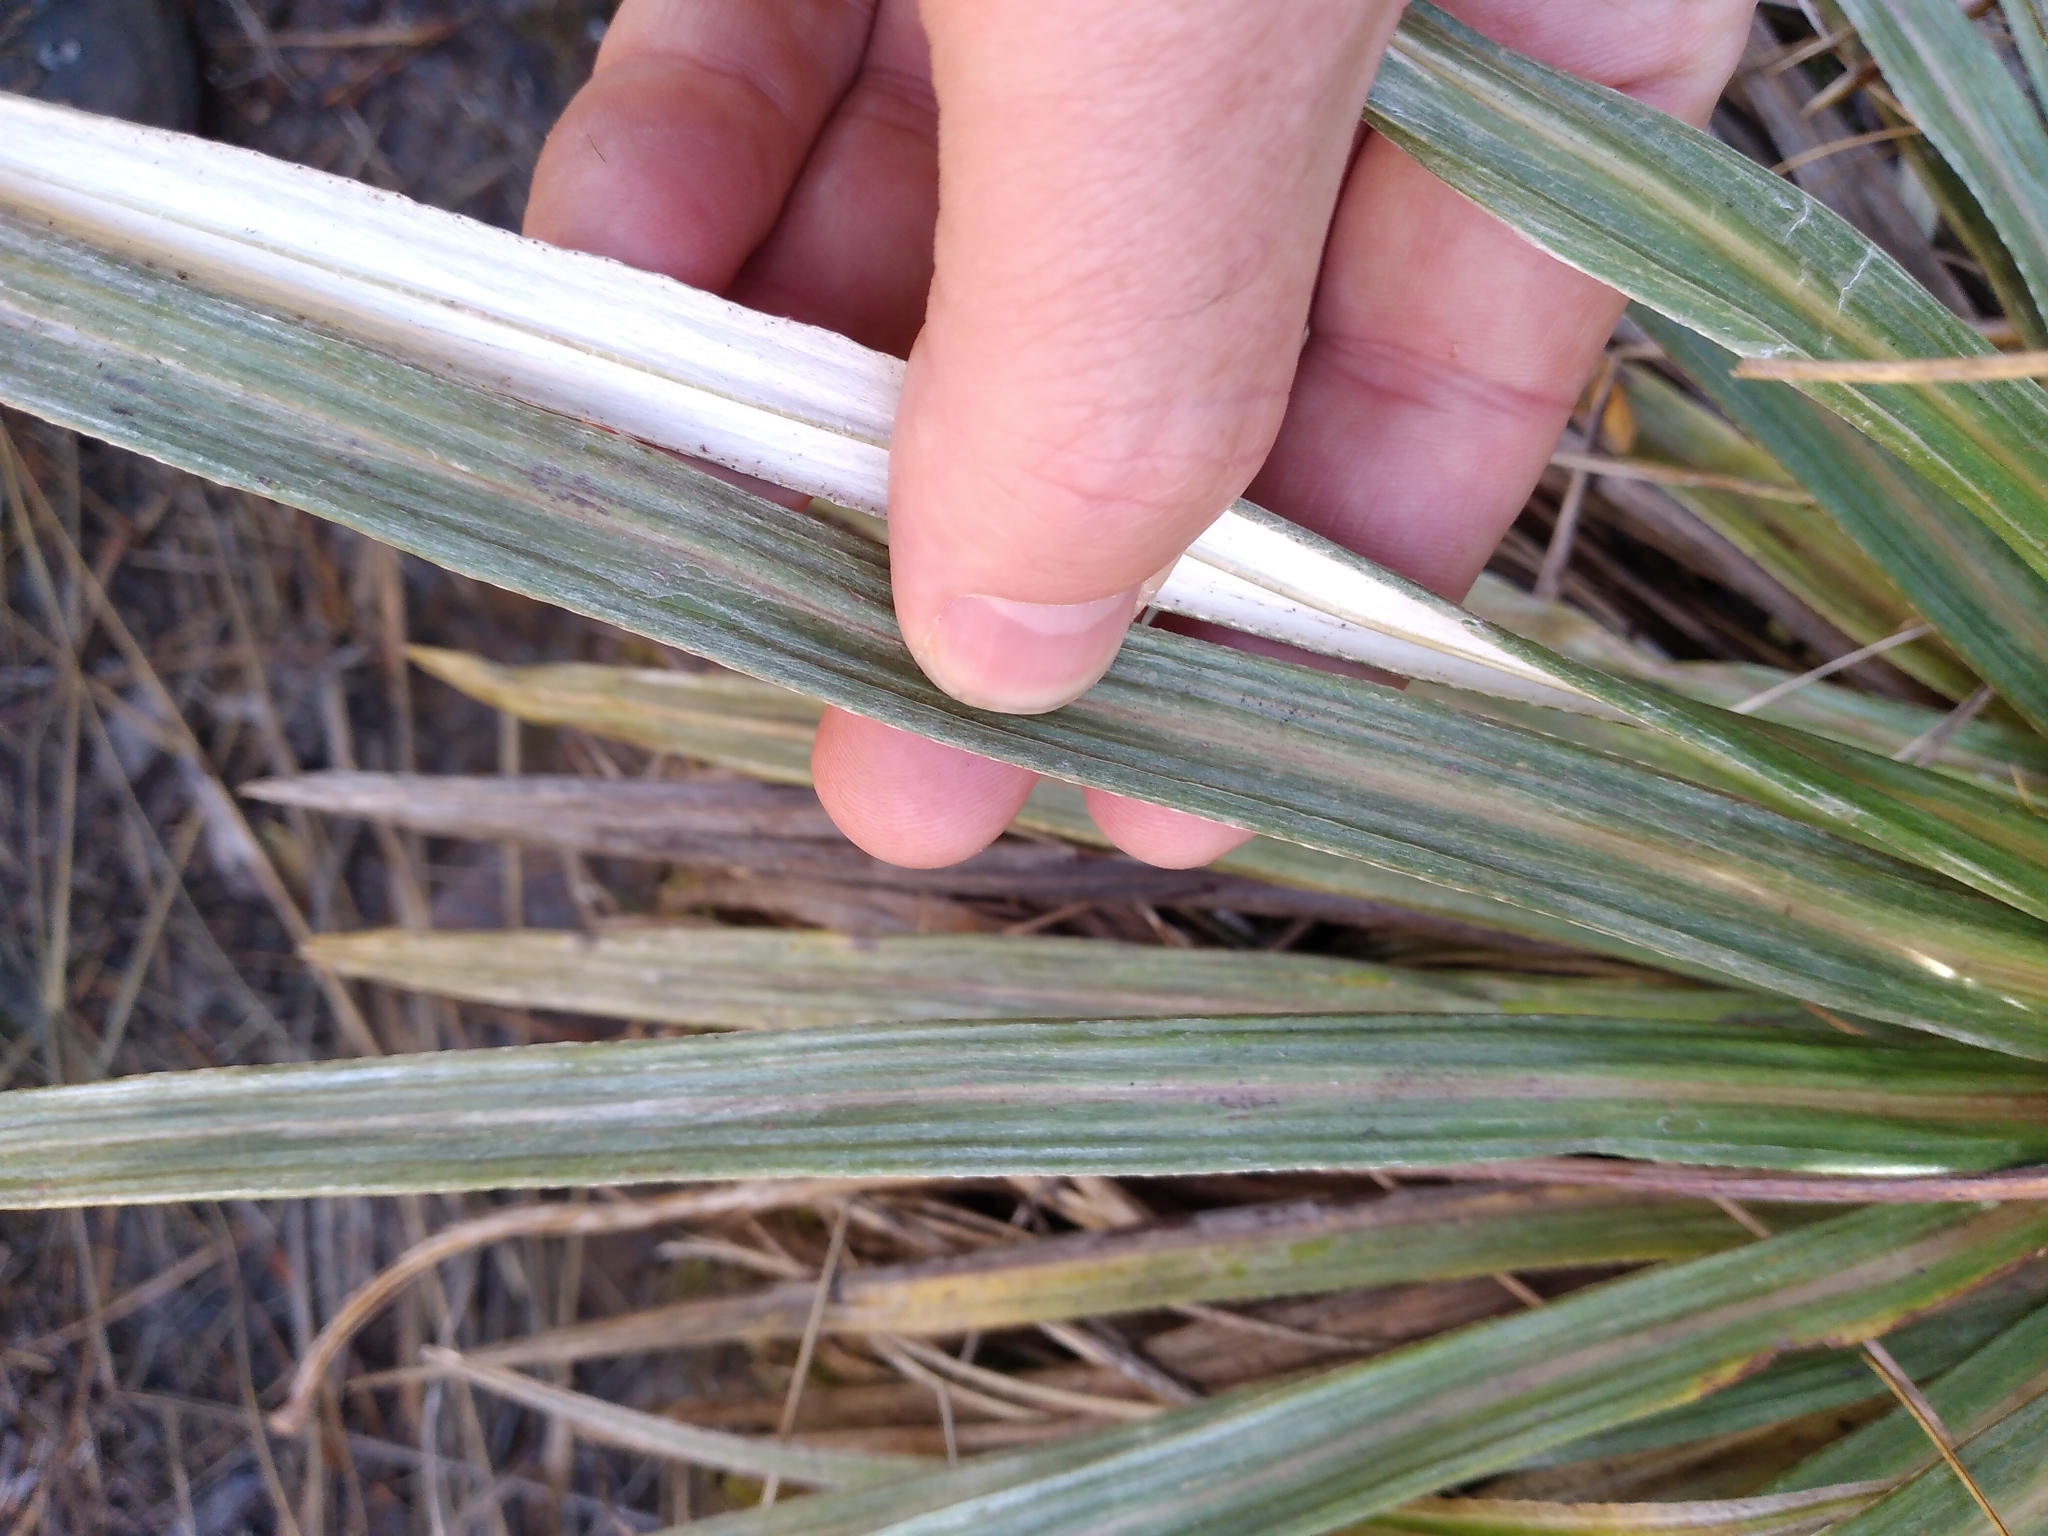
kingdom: Plantae
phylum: Tracheophyta
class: Magnoliopsida
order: Asterales
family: Asteraceae
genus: Celmisia
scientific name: Celmisia armstrongii
